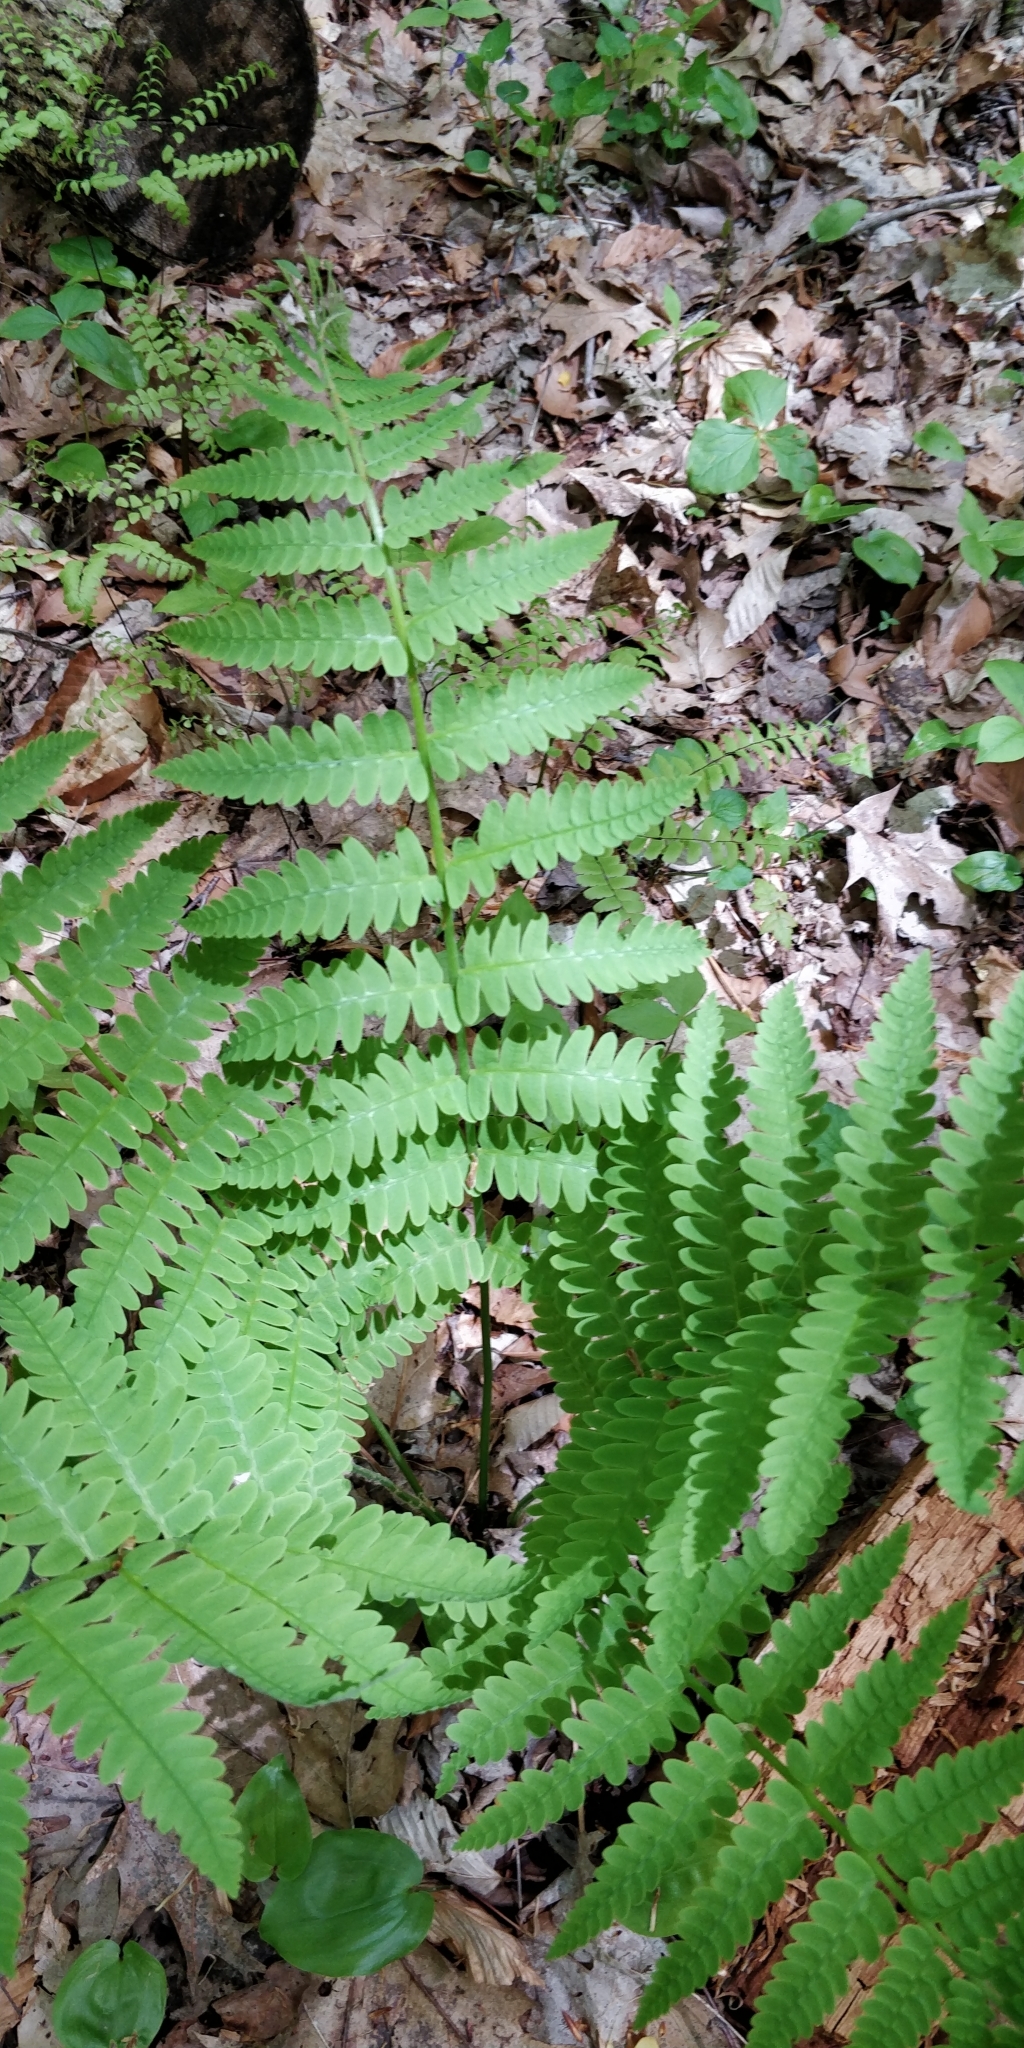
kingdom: Plantae
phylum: Tracheophyta
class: Polypodiopsida
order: Osmundales
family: Osmundaceae
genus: Claytosmunda
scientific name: Claytosmunda claytoniana
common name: Clayton's fern
